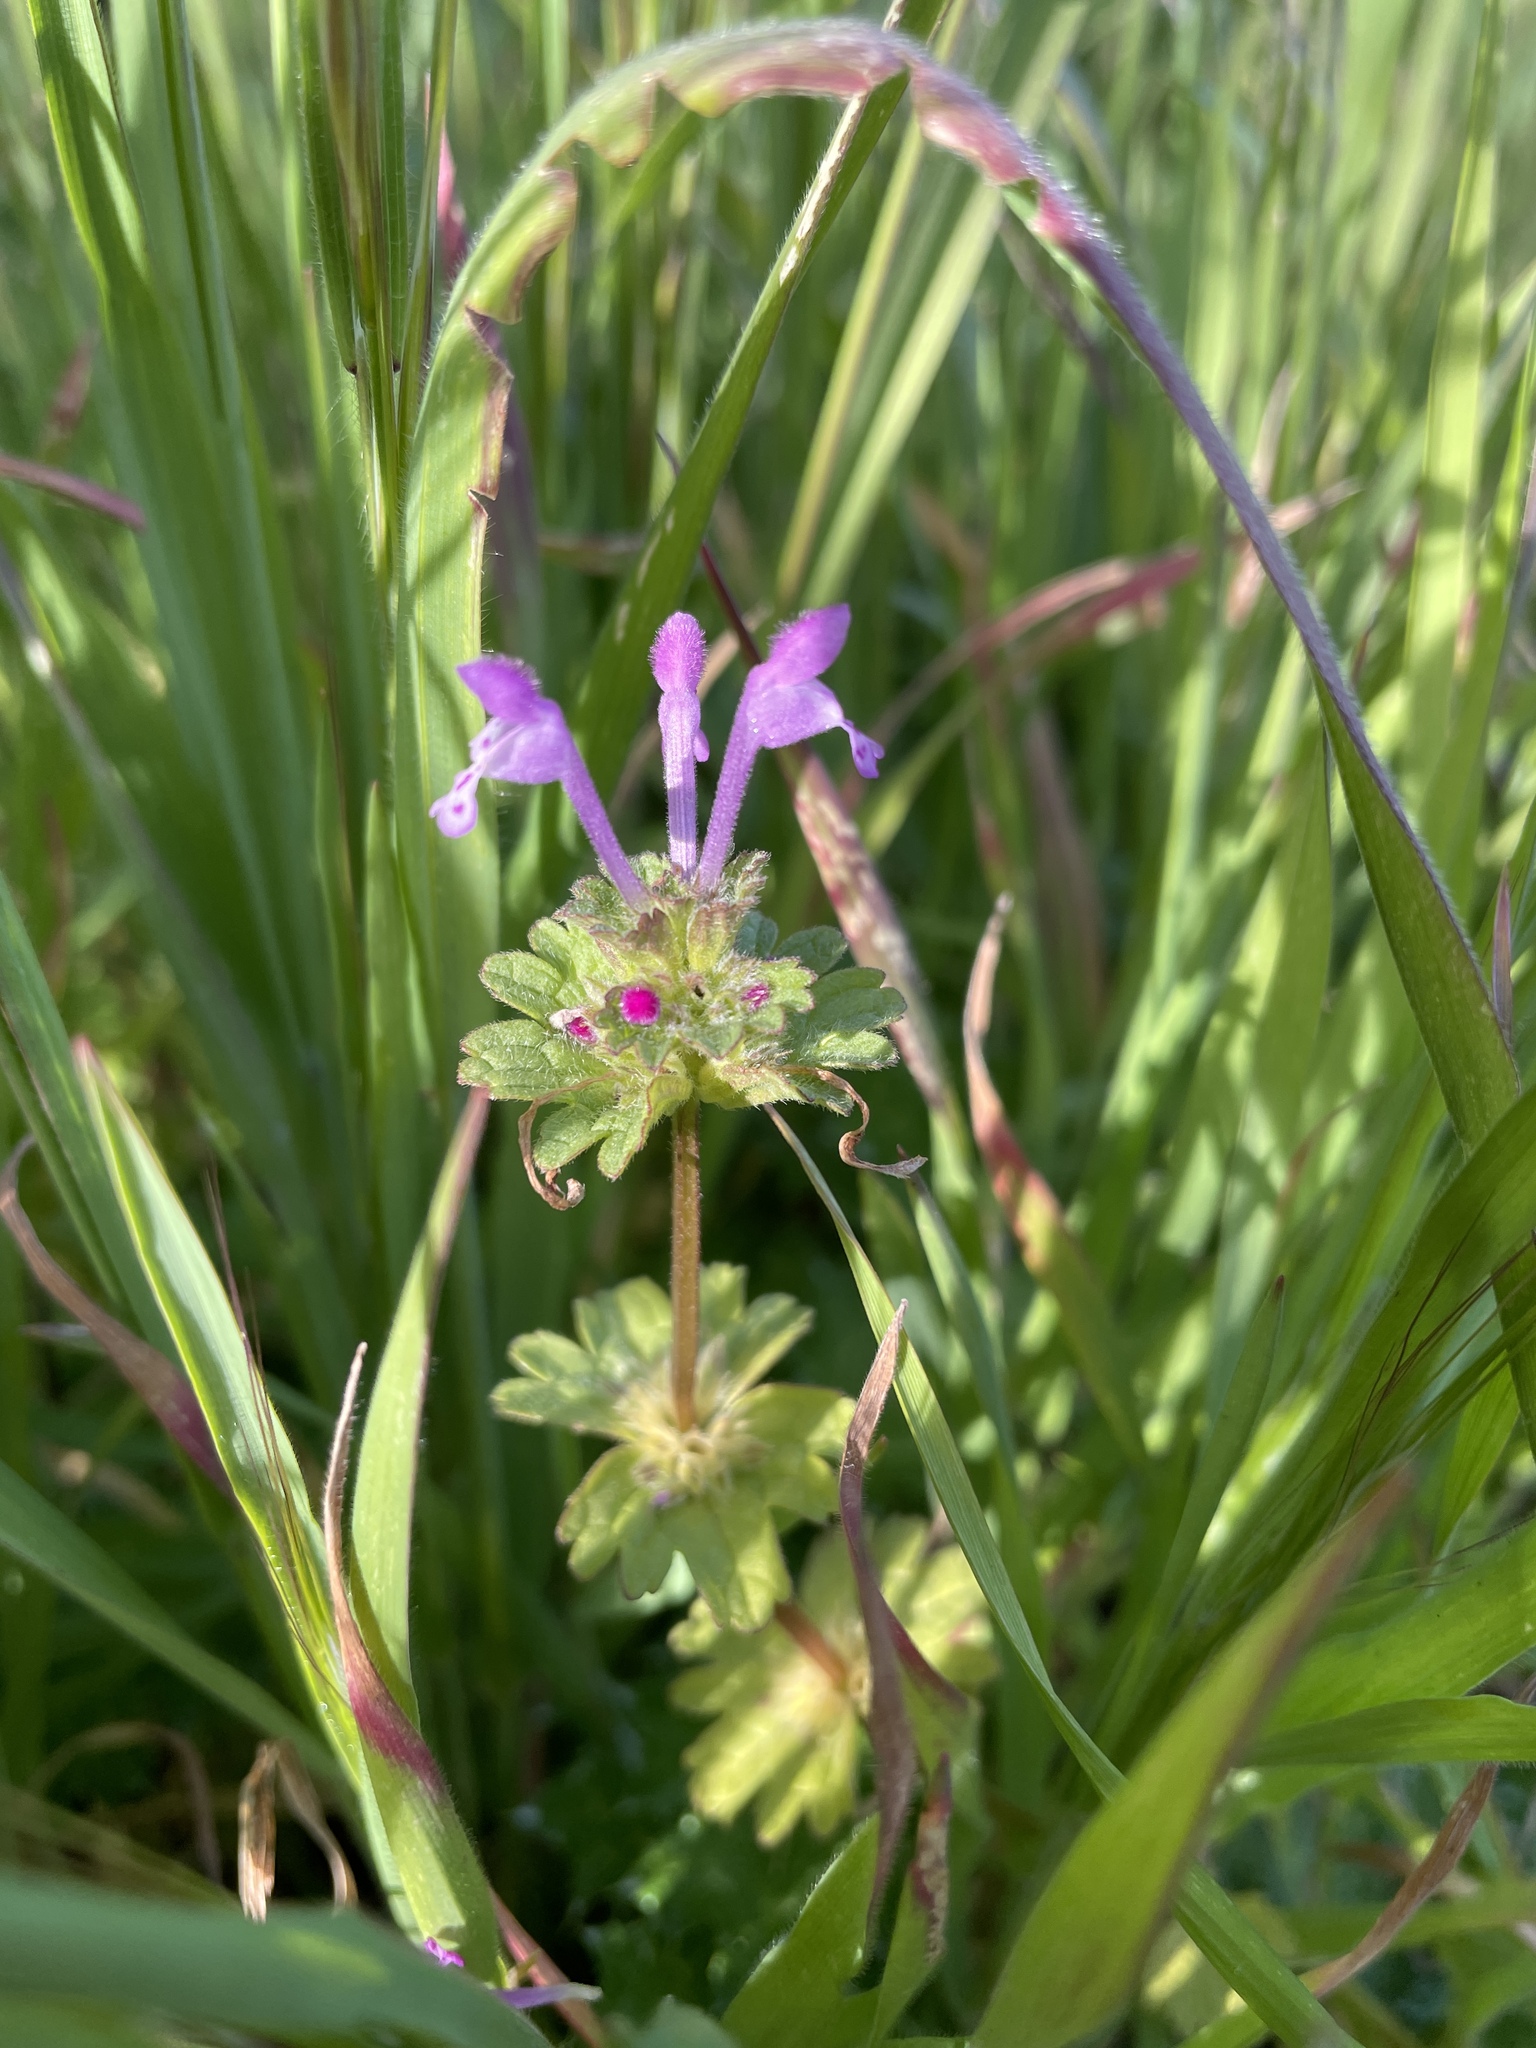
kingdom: Plantae
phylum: Tracheophyta
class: Magnoliopsida
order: Lamiales
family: Lamiaceae
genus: Lamium
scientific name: Lamium amplexicaule
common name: Henbit dead-nettle
